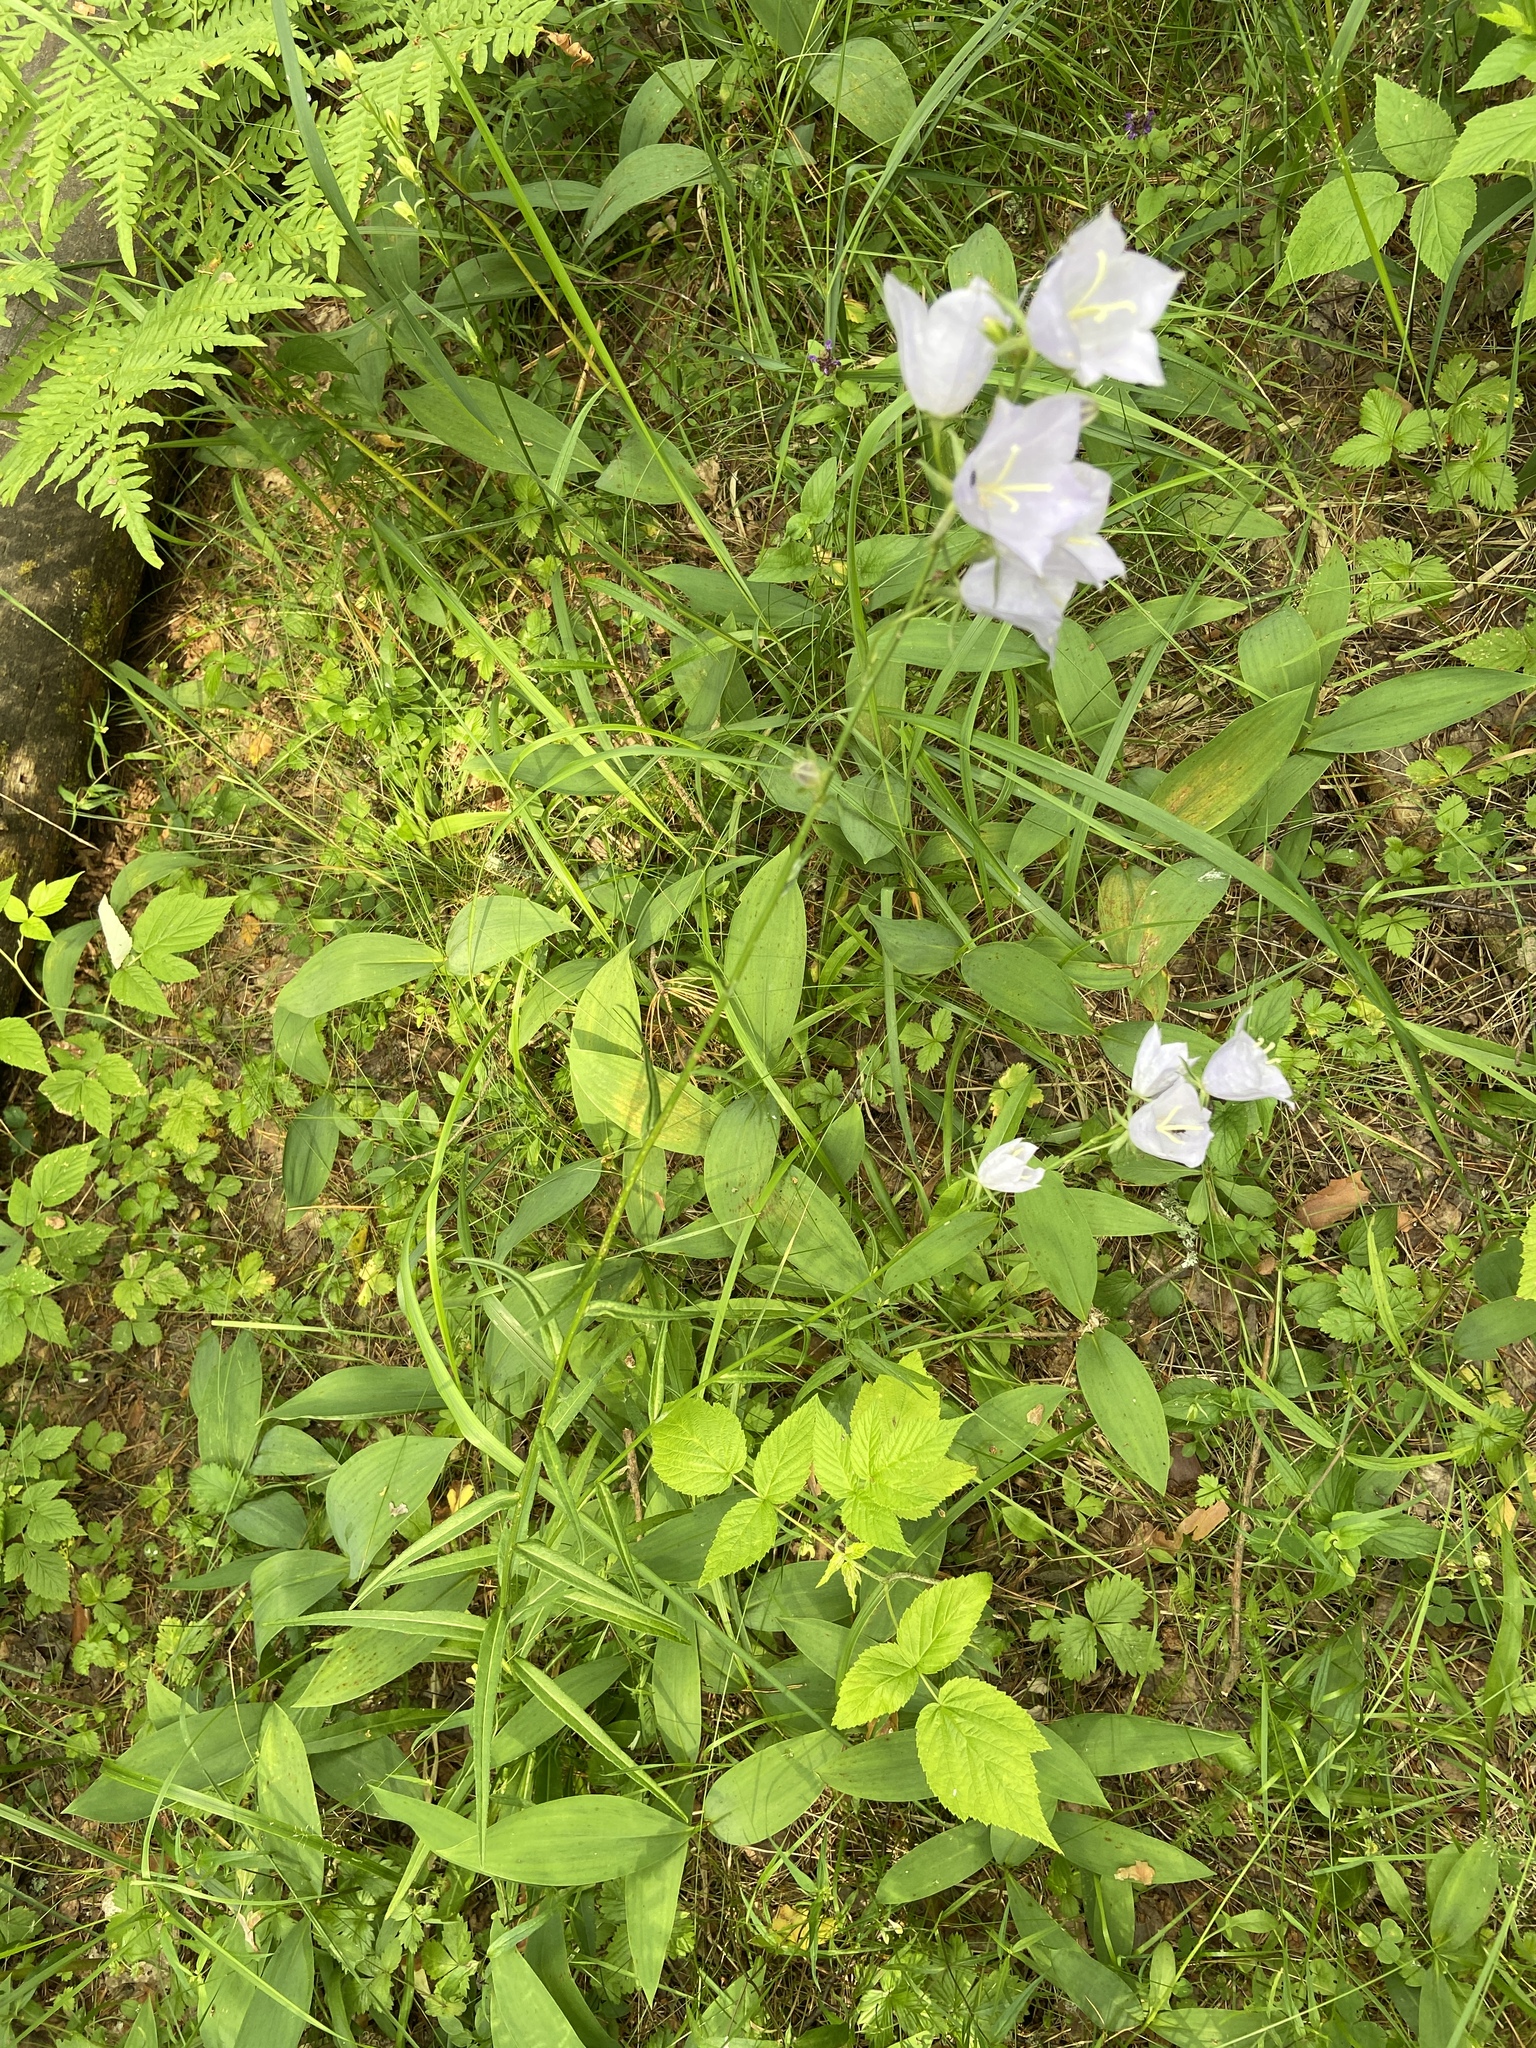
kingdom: Plantae
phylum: Tracheophyta
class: Magnoliopsida
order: Asterales
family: Campanulaceae
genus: Campanula
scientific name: Campanula persicifolia
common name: Peach-leaved bellflower
